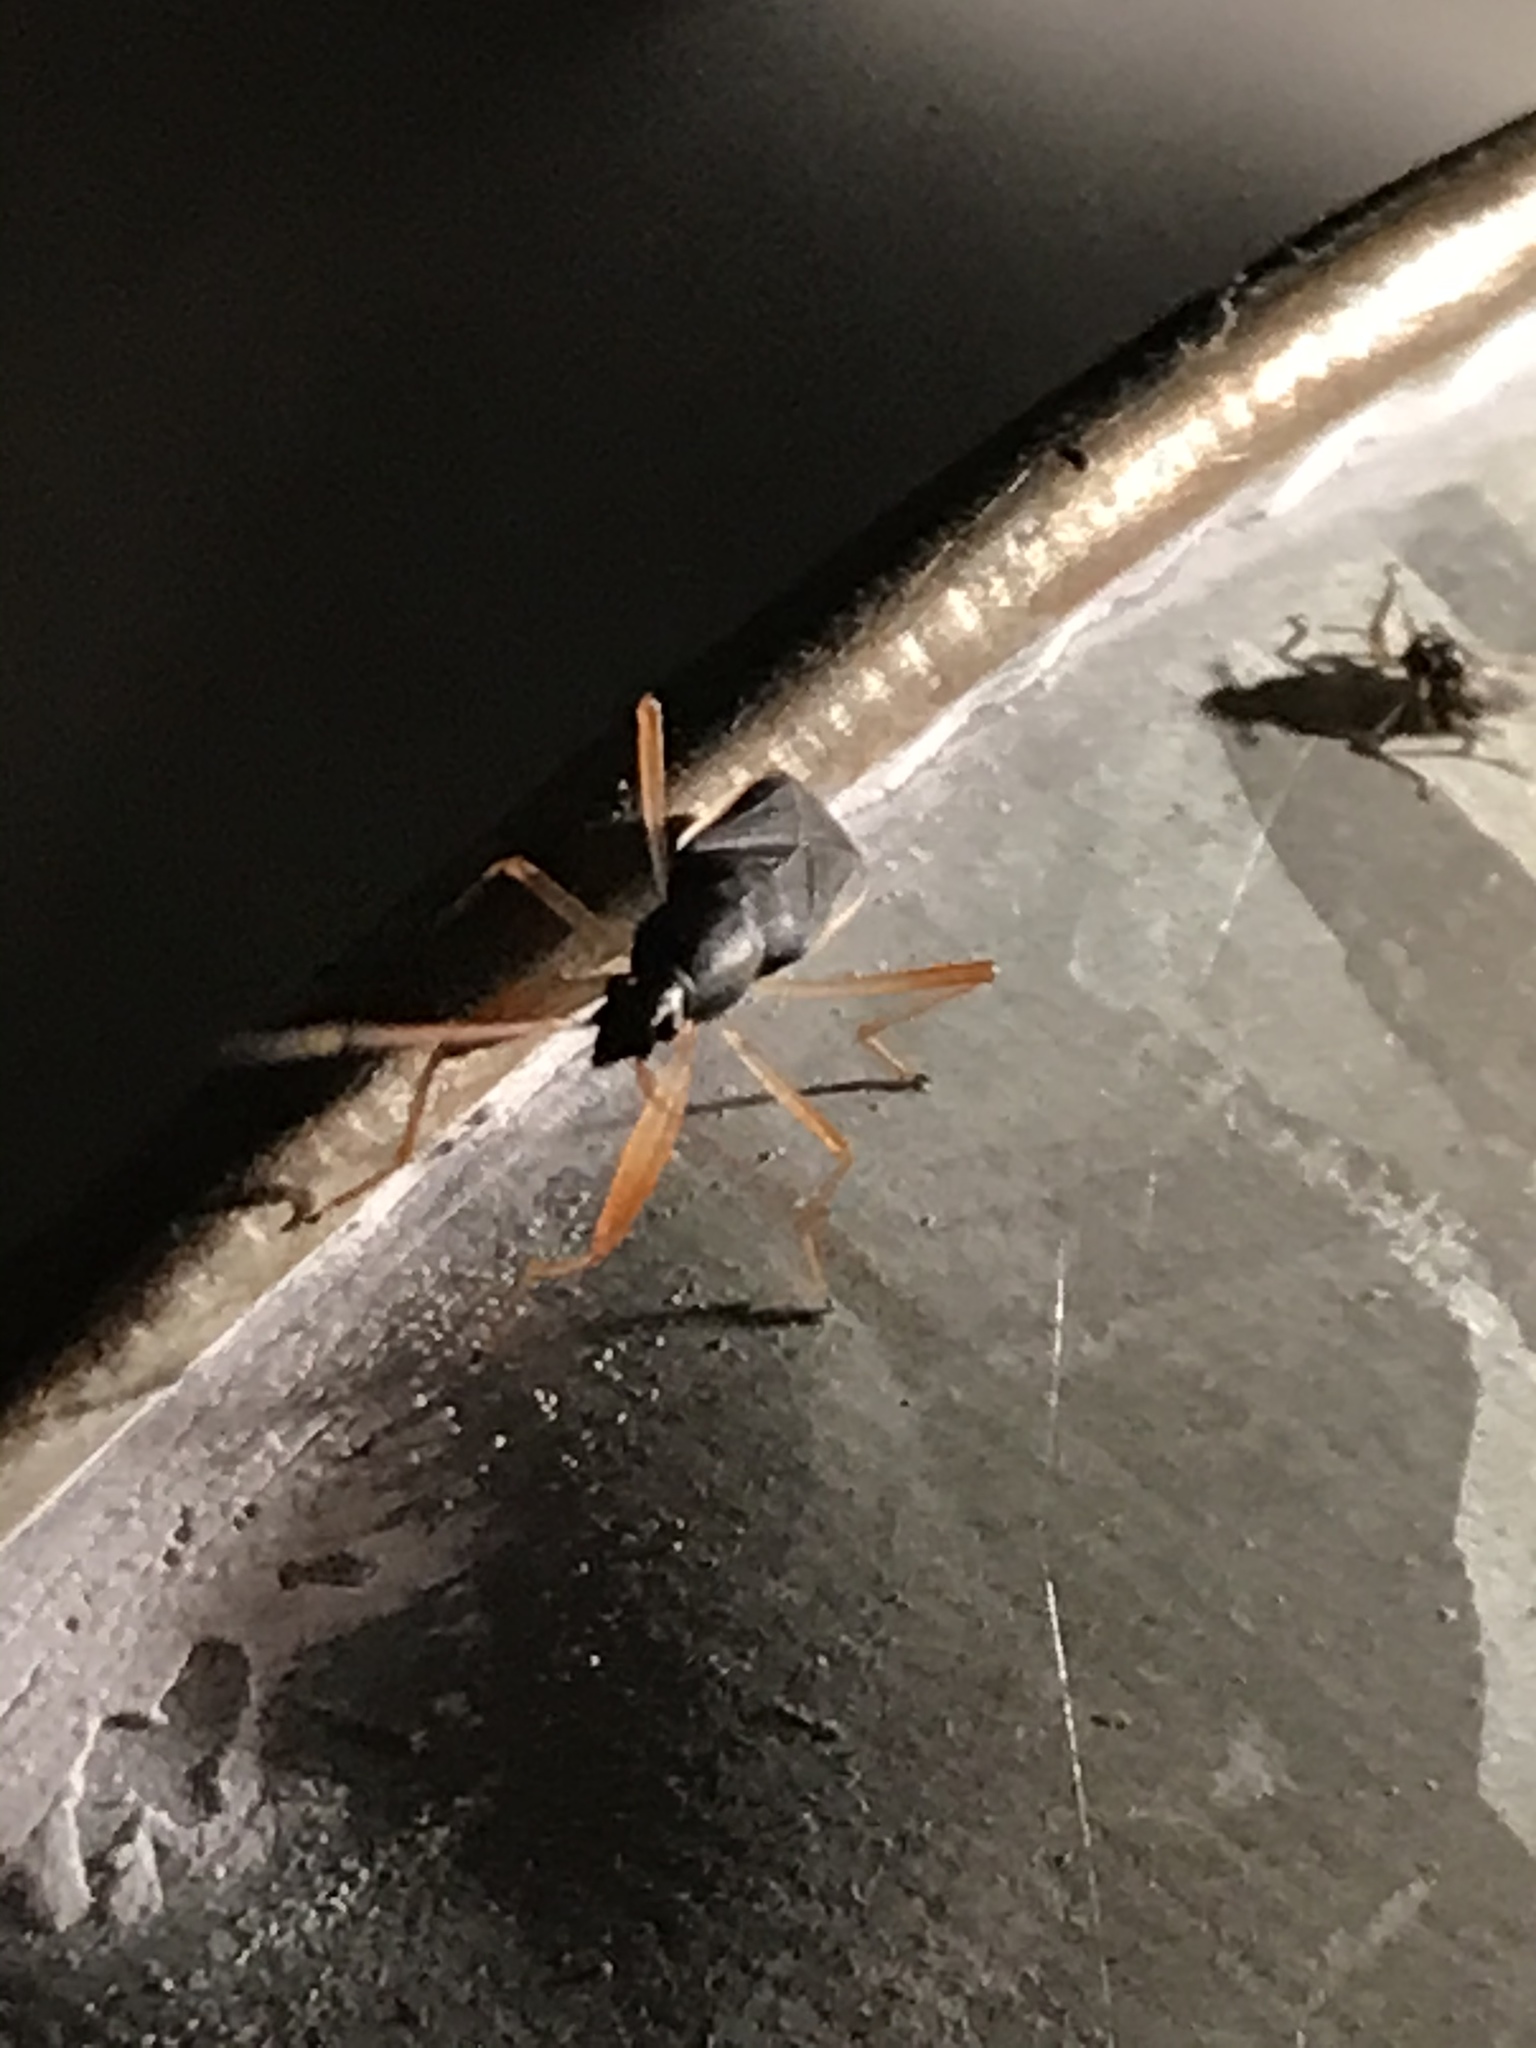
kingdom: Animalia
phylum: Arthropoda
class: Insecta
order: Hemiptera
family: Rhyparochromidae
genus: Cnemodus
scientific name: Cnemodus mavortius
